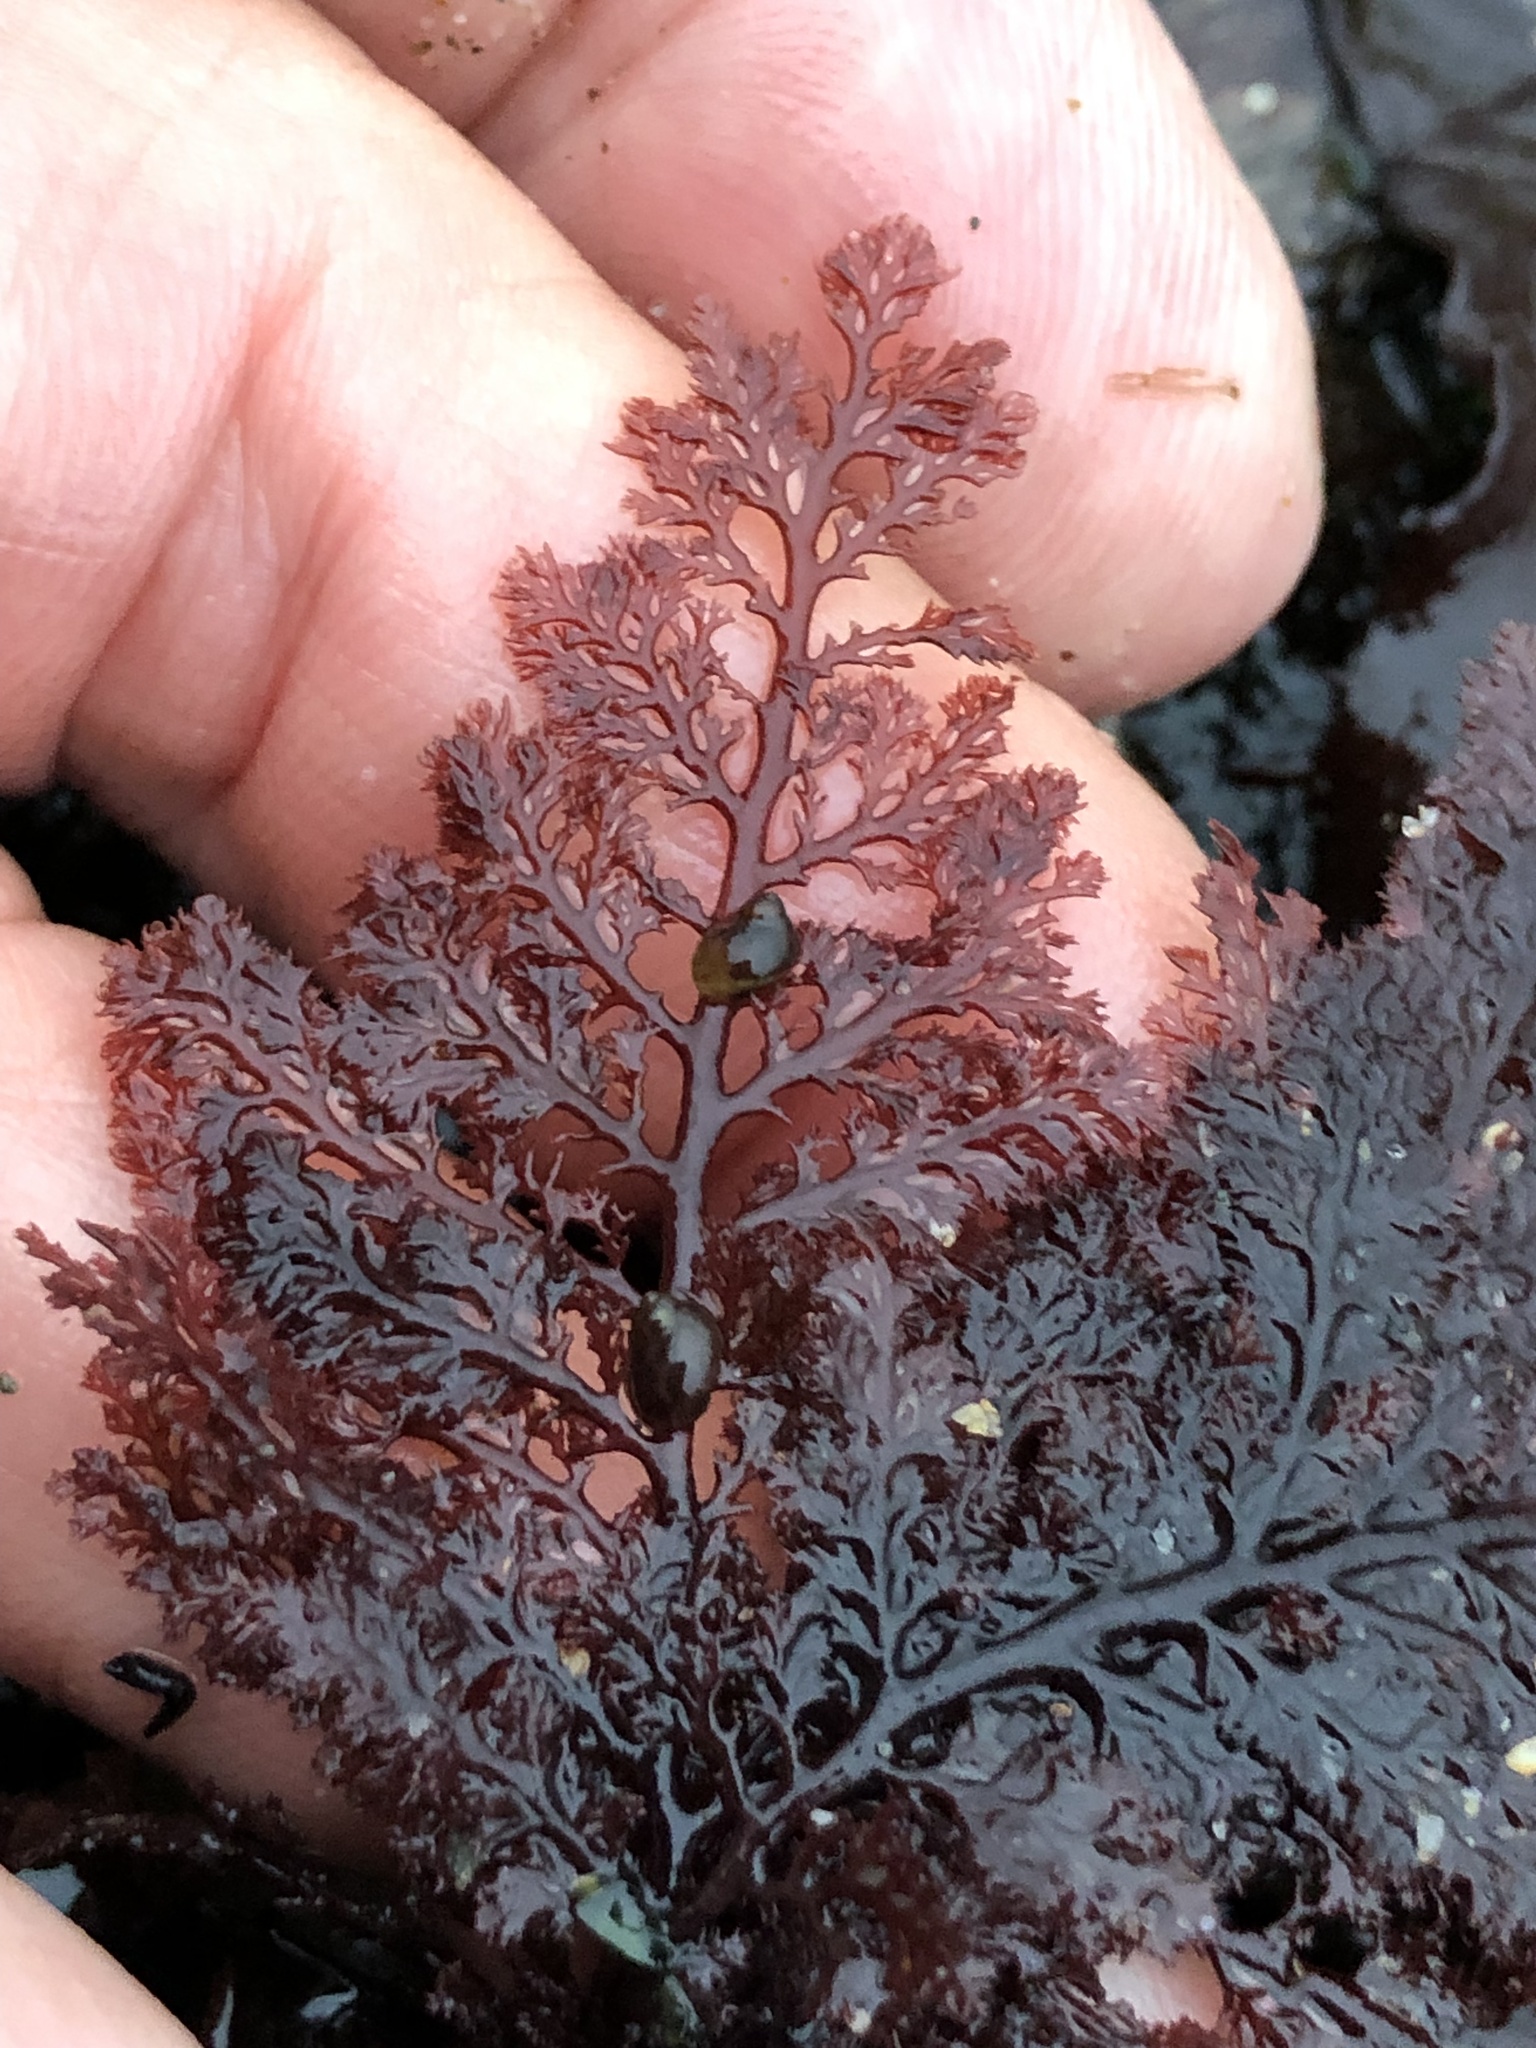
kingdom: Plantae
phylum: Rhodophyta
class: Florideophyceae
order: Ceramiales
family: Ceramiaceae
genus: Microcladia
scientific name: Microcladia coulteri
